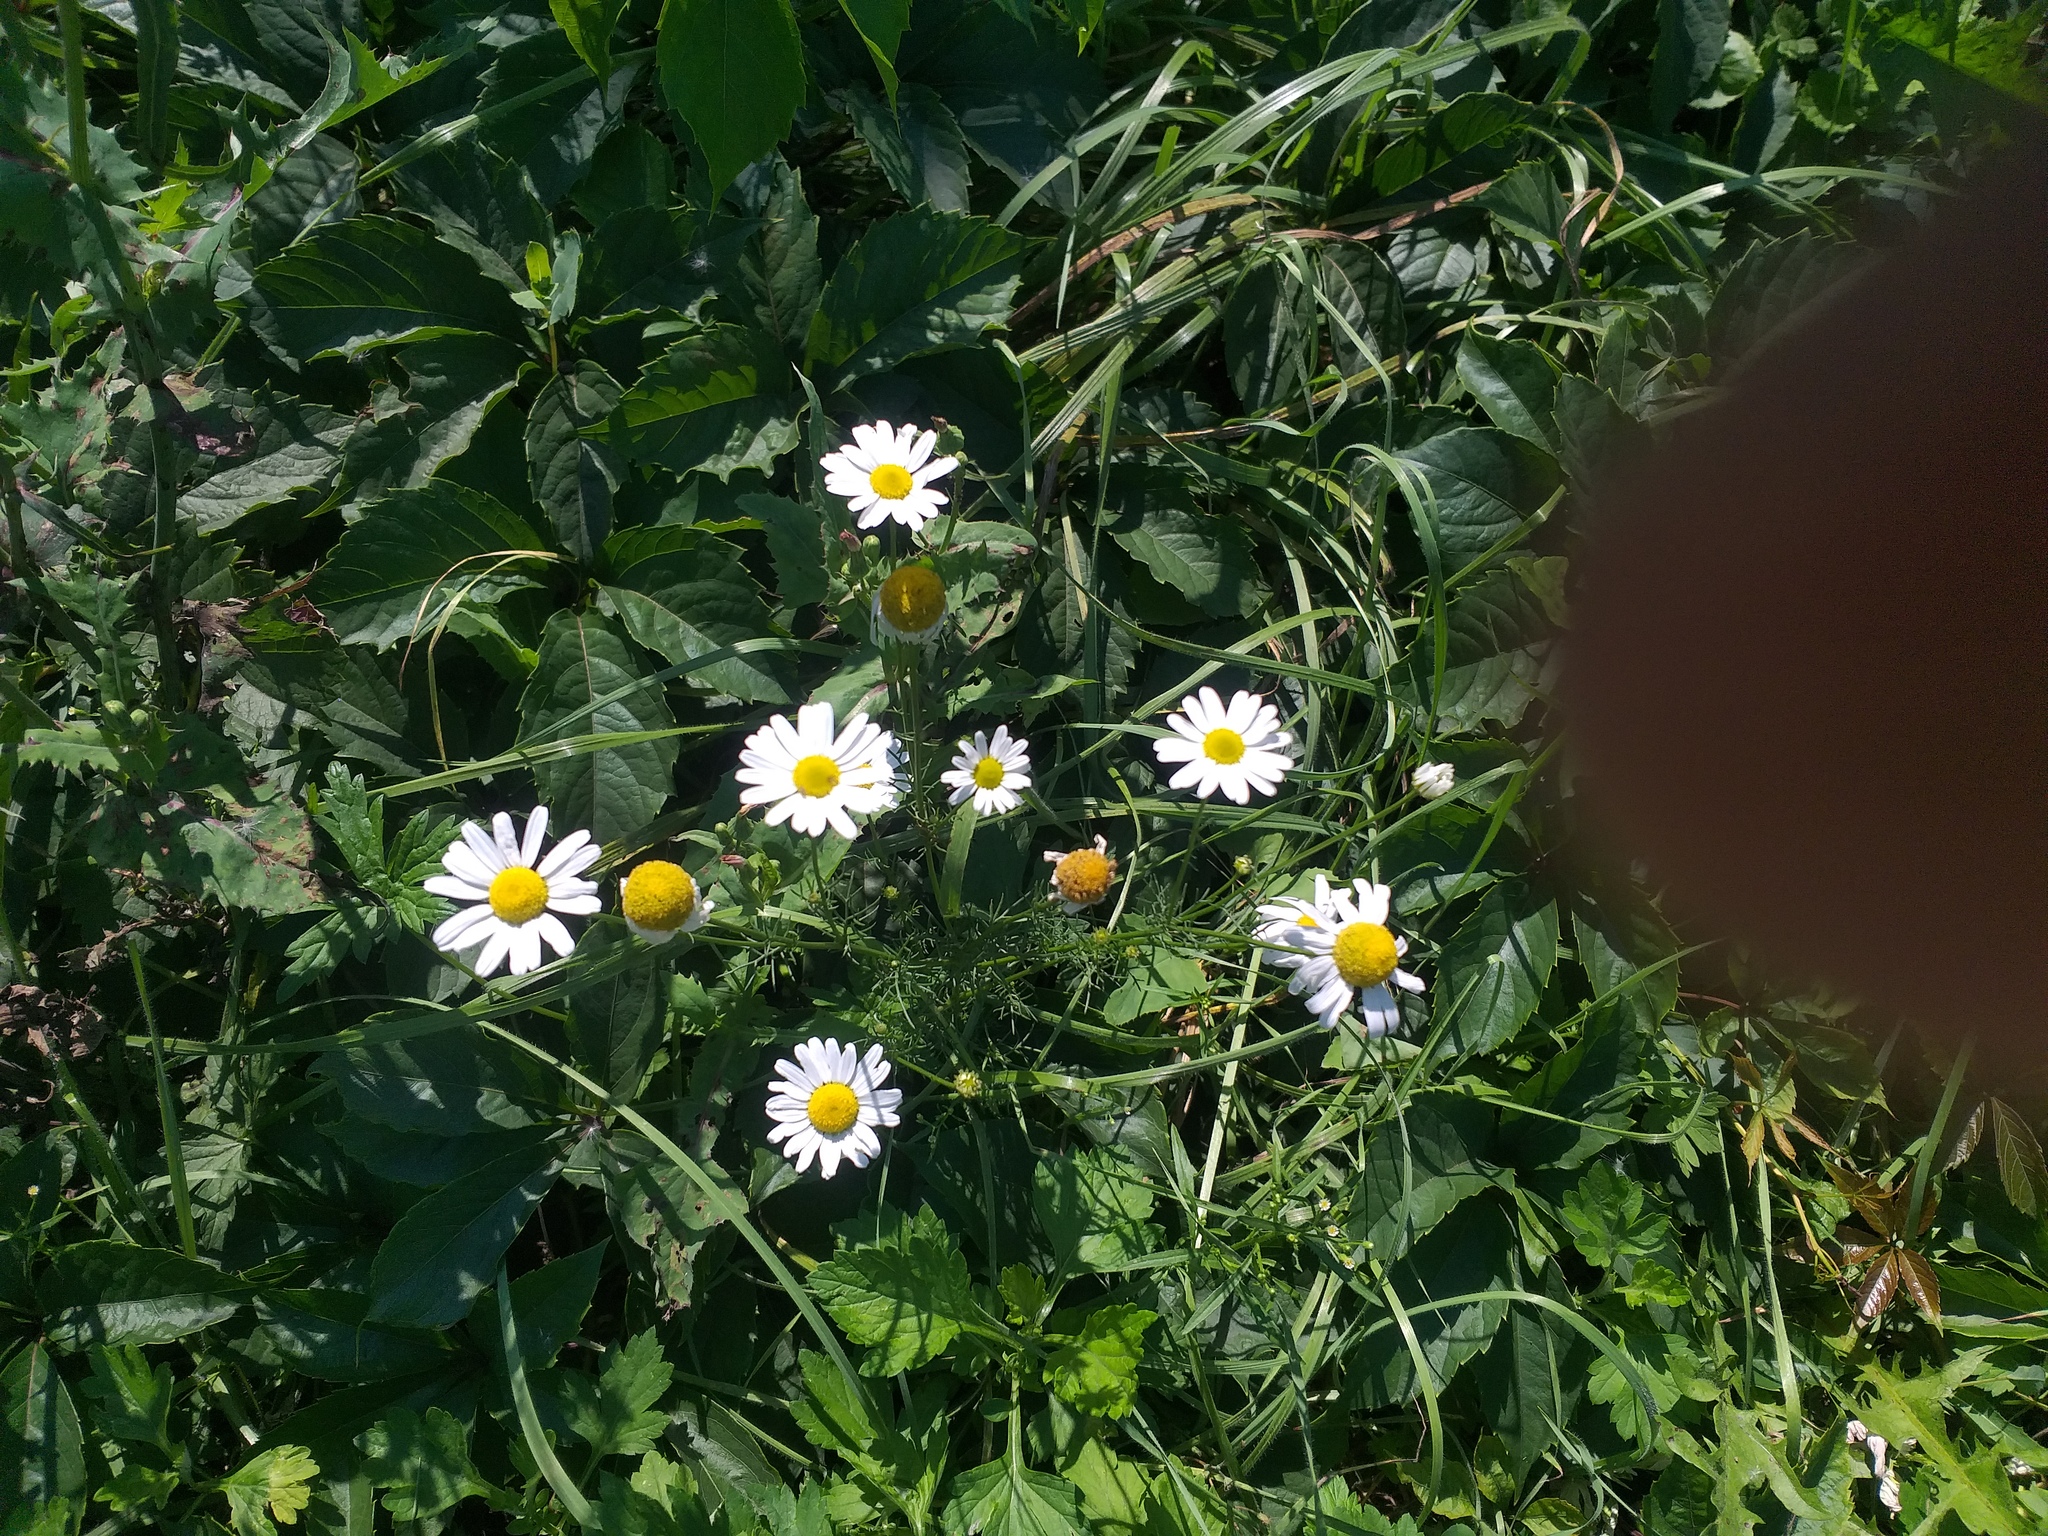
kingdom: Plantae
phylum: Tracheophyta
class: Magnoliopsida
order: Asterales
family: Asteraceae
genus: Tripleurospermum
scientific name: Tripleurospermum inodorum
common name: Scentless mayweed
